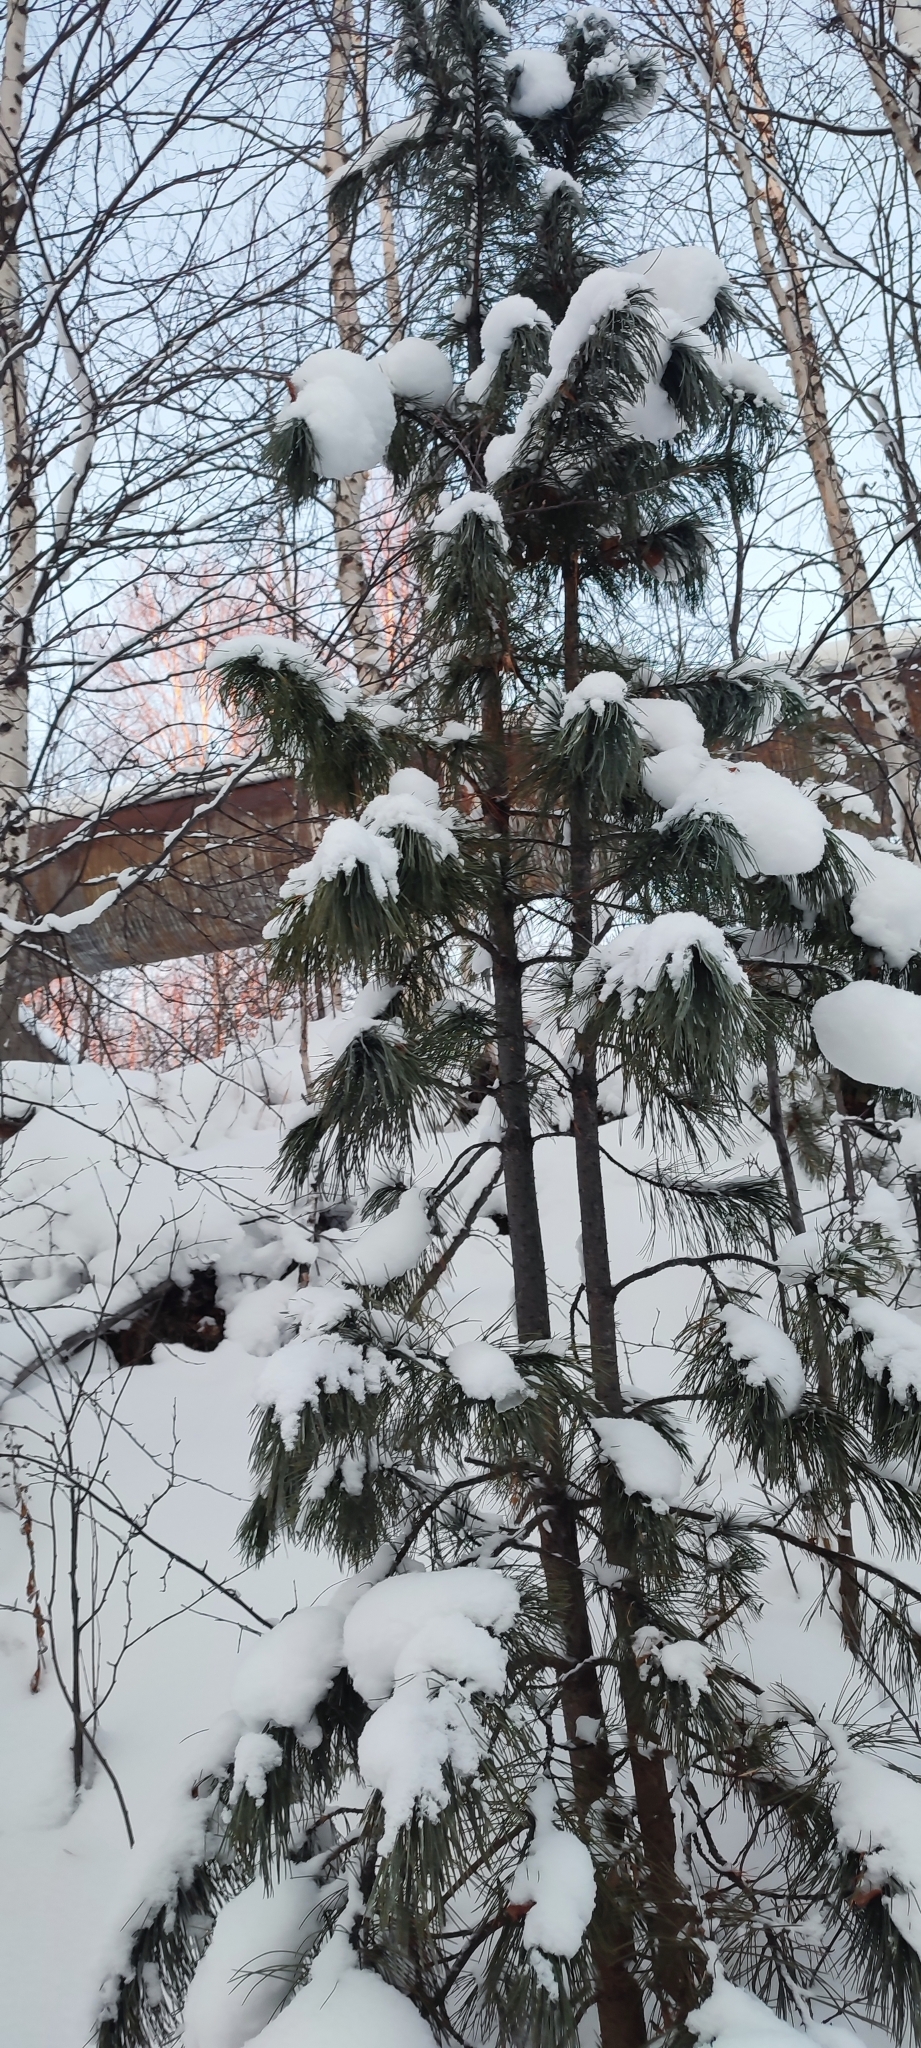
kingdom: Plantae
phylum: Tracheophyta
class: Pinopsida
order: Pinales
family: Pinaceae
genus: Pinus
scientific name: Pinus sibirica
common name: Siberian pine
